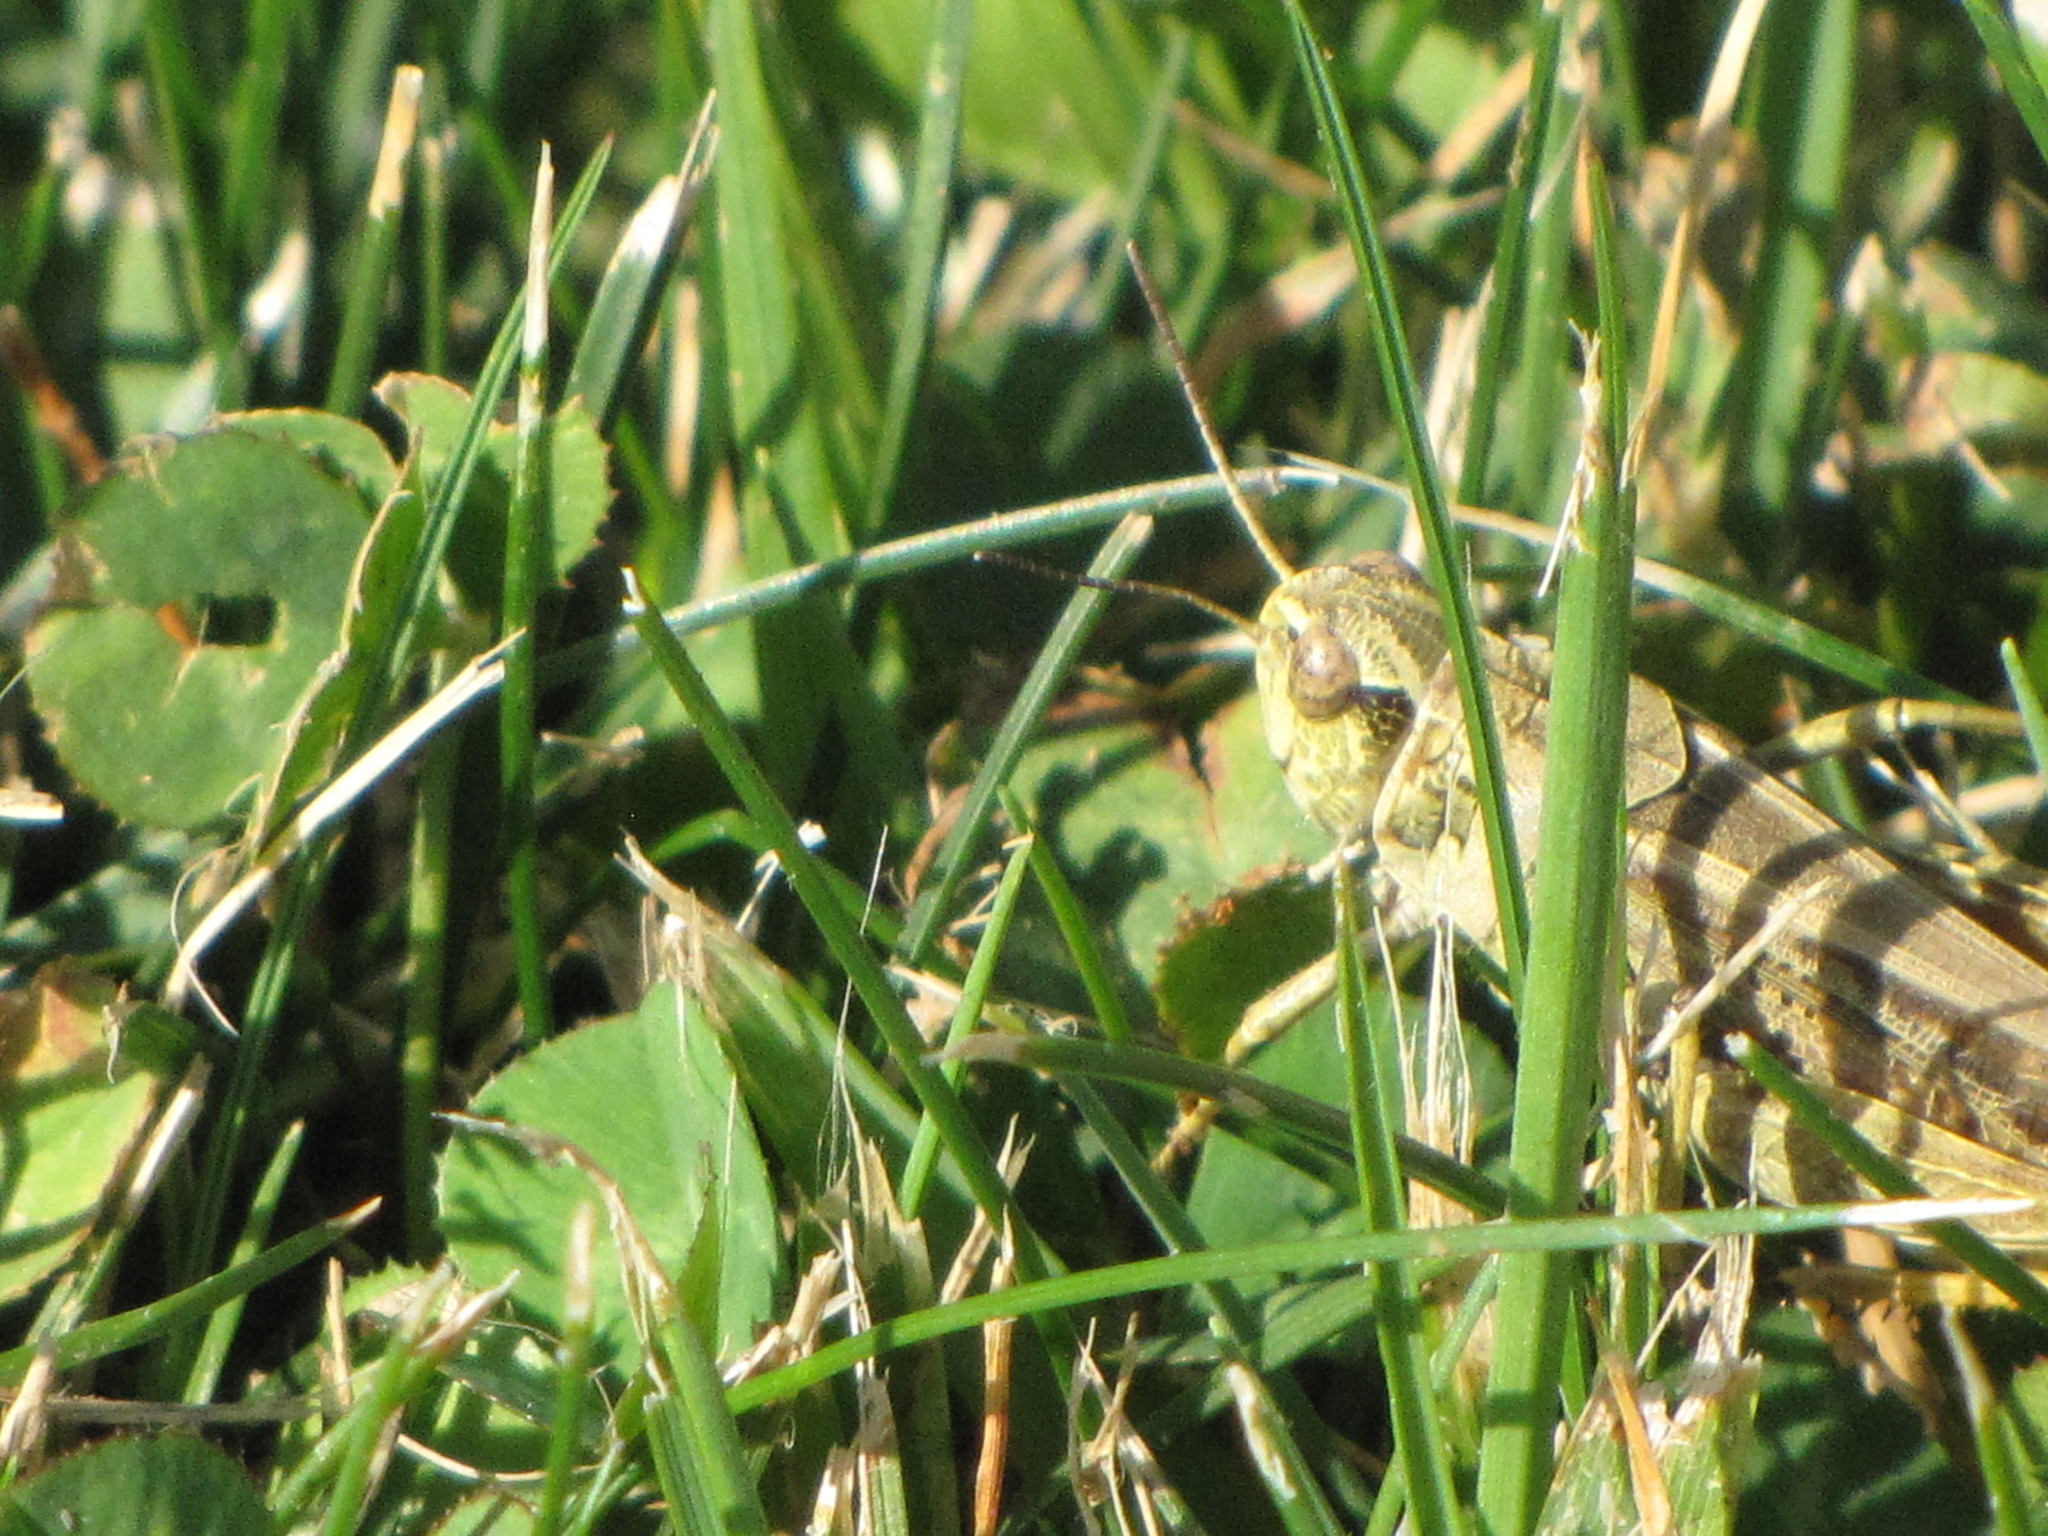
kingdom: Animalia
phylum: Arthropoda
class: Insecta
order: Orthoptera
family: Acrididae
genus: Camnula
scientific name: Camnula pellucida
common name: Clear-winged grasshopper
